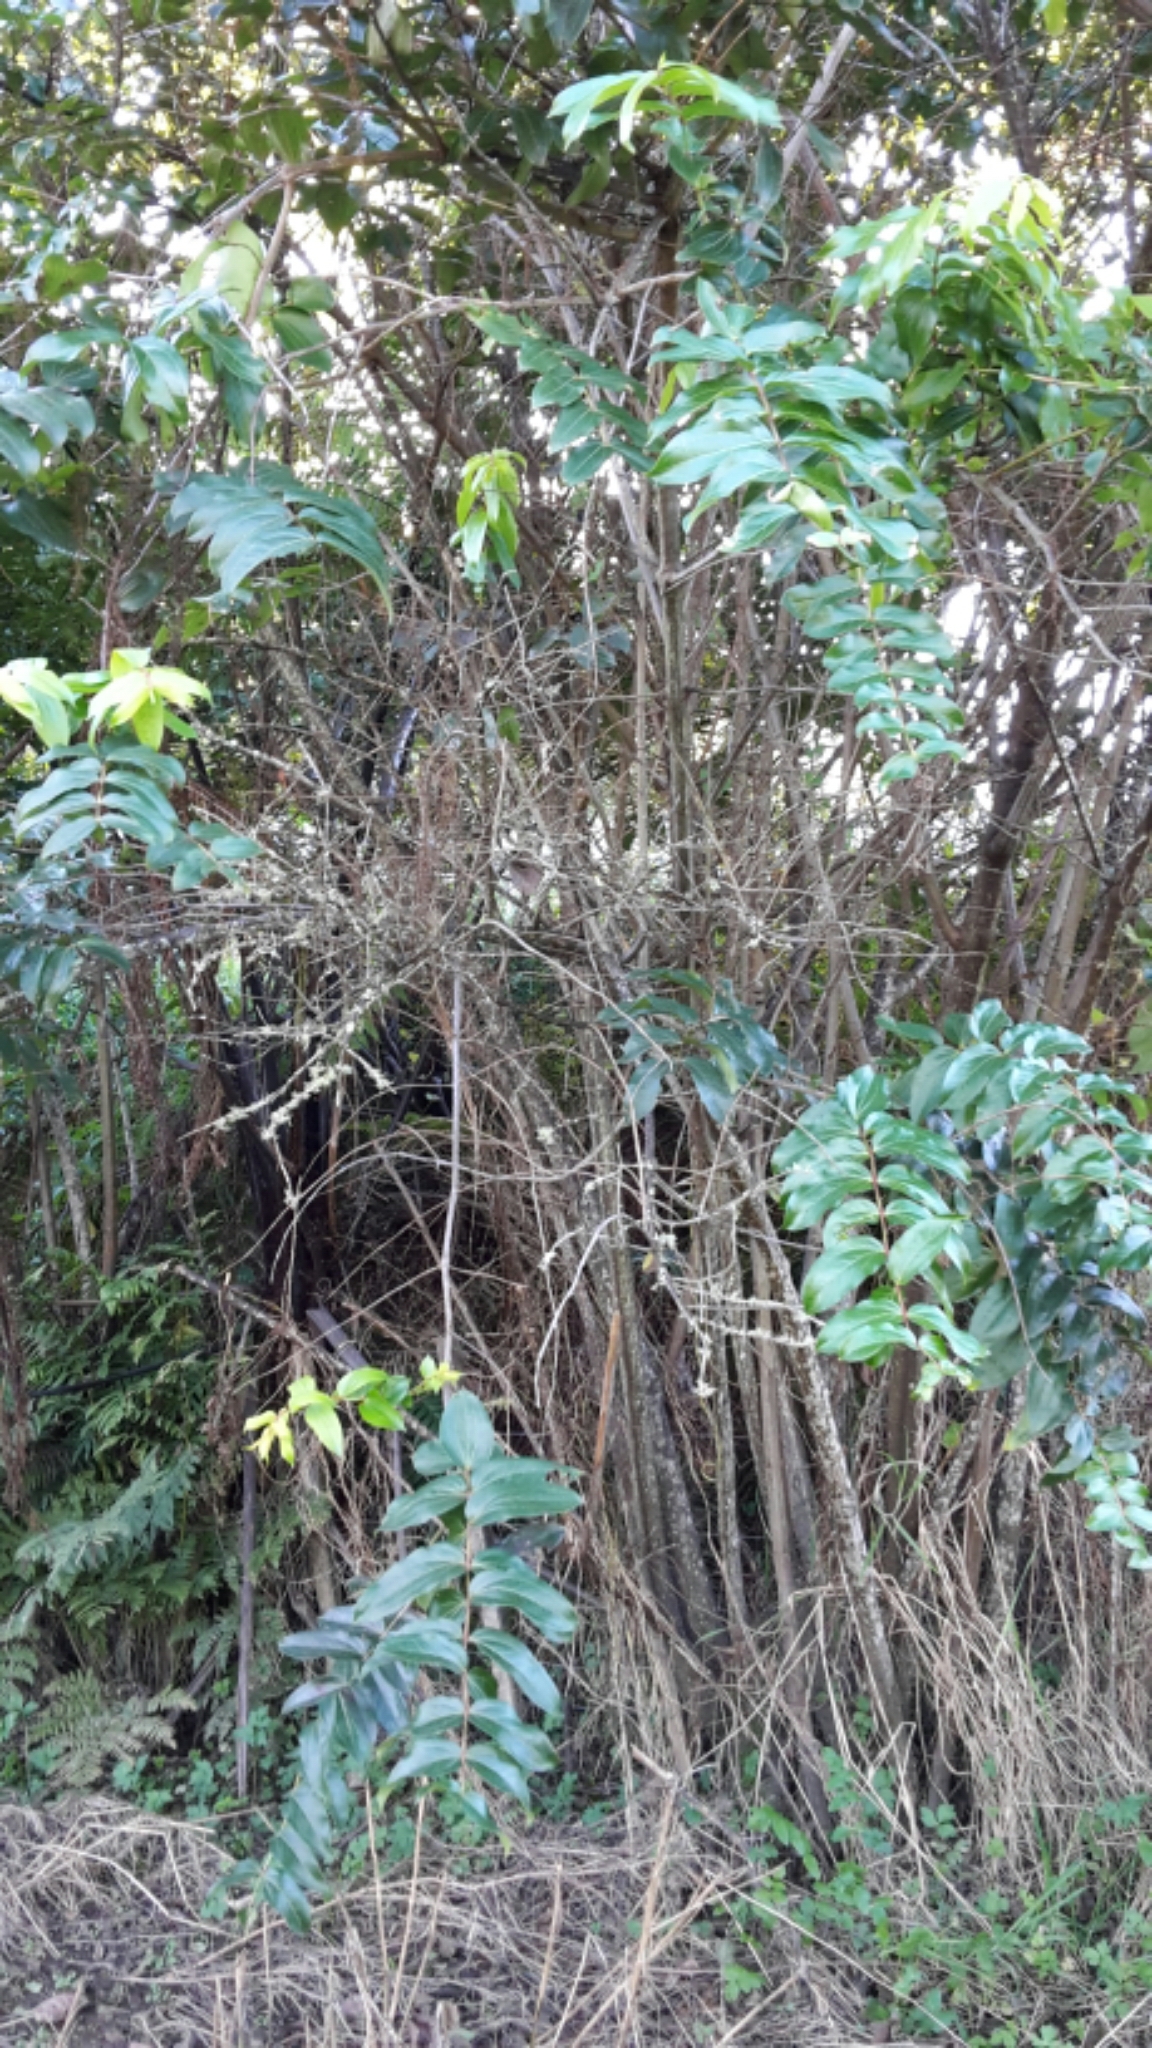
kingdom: Plantae
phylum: Tracheophyta
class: Magnoliopsida
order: Cucurbitales
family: Coriariaceae
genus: Coriaria
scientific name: Coriaria arborea
